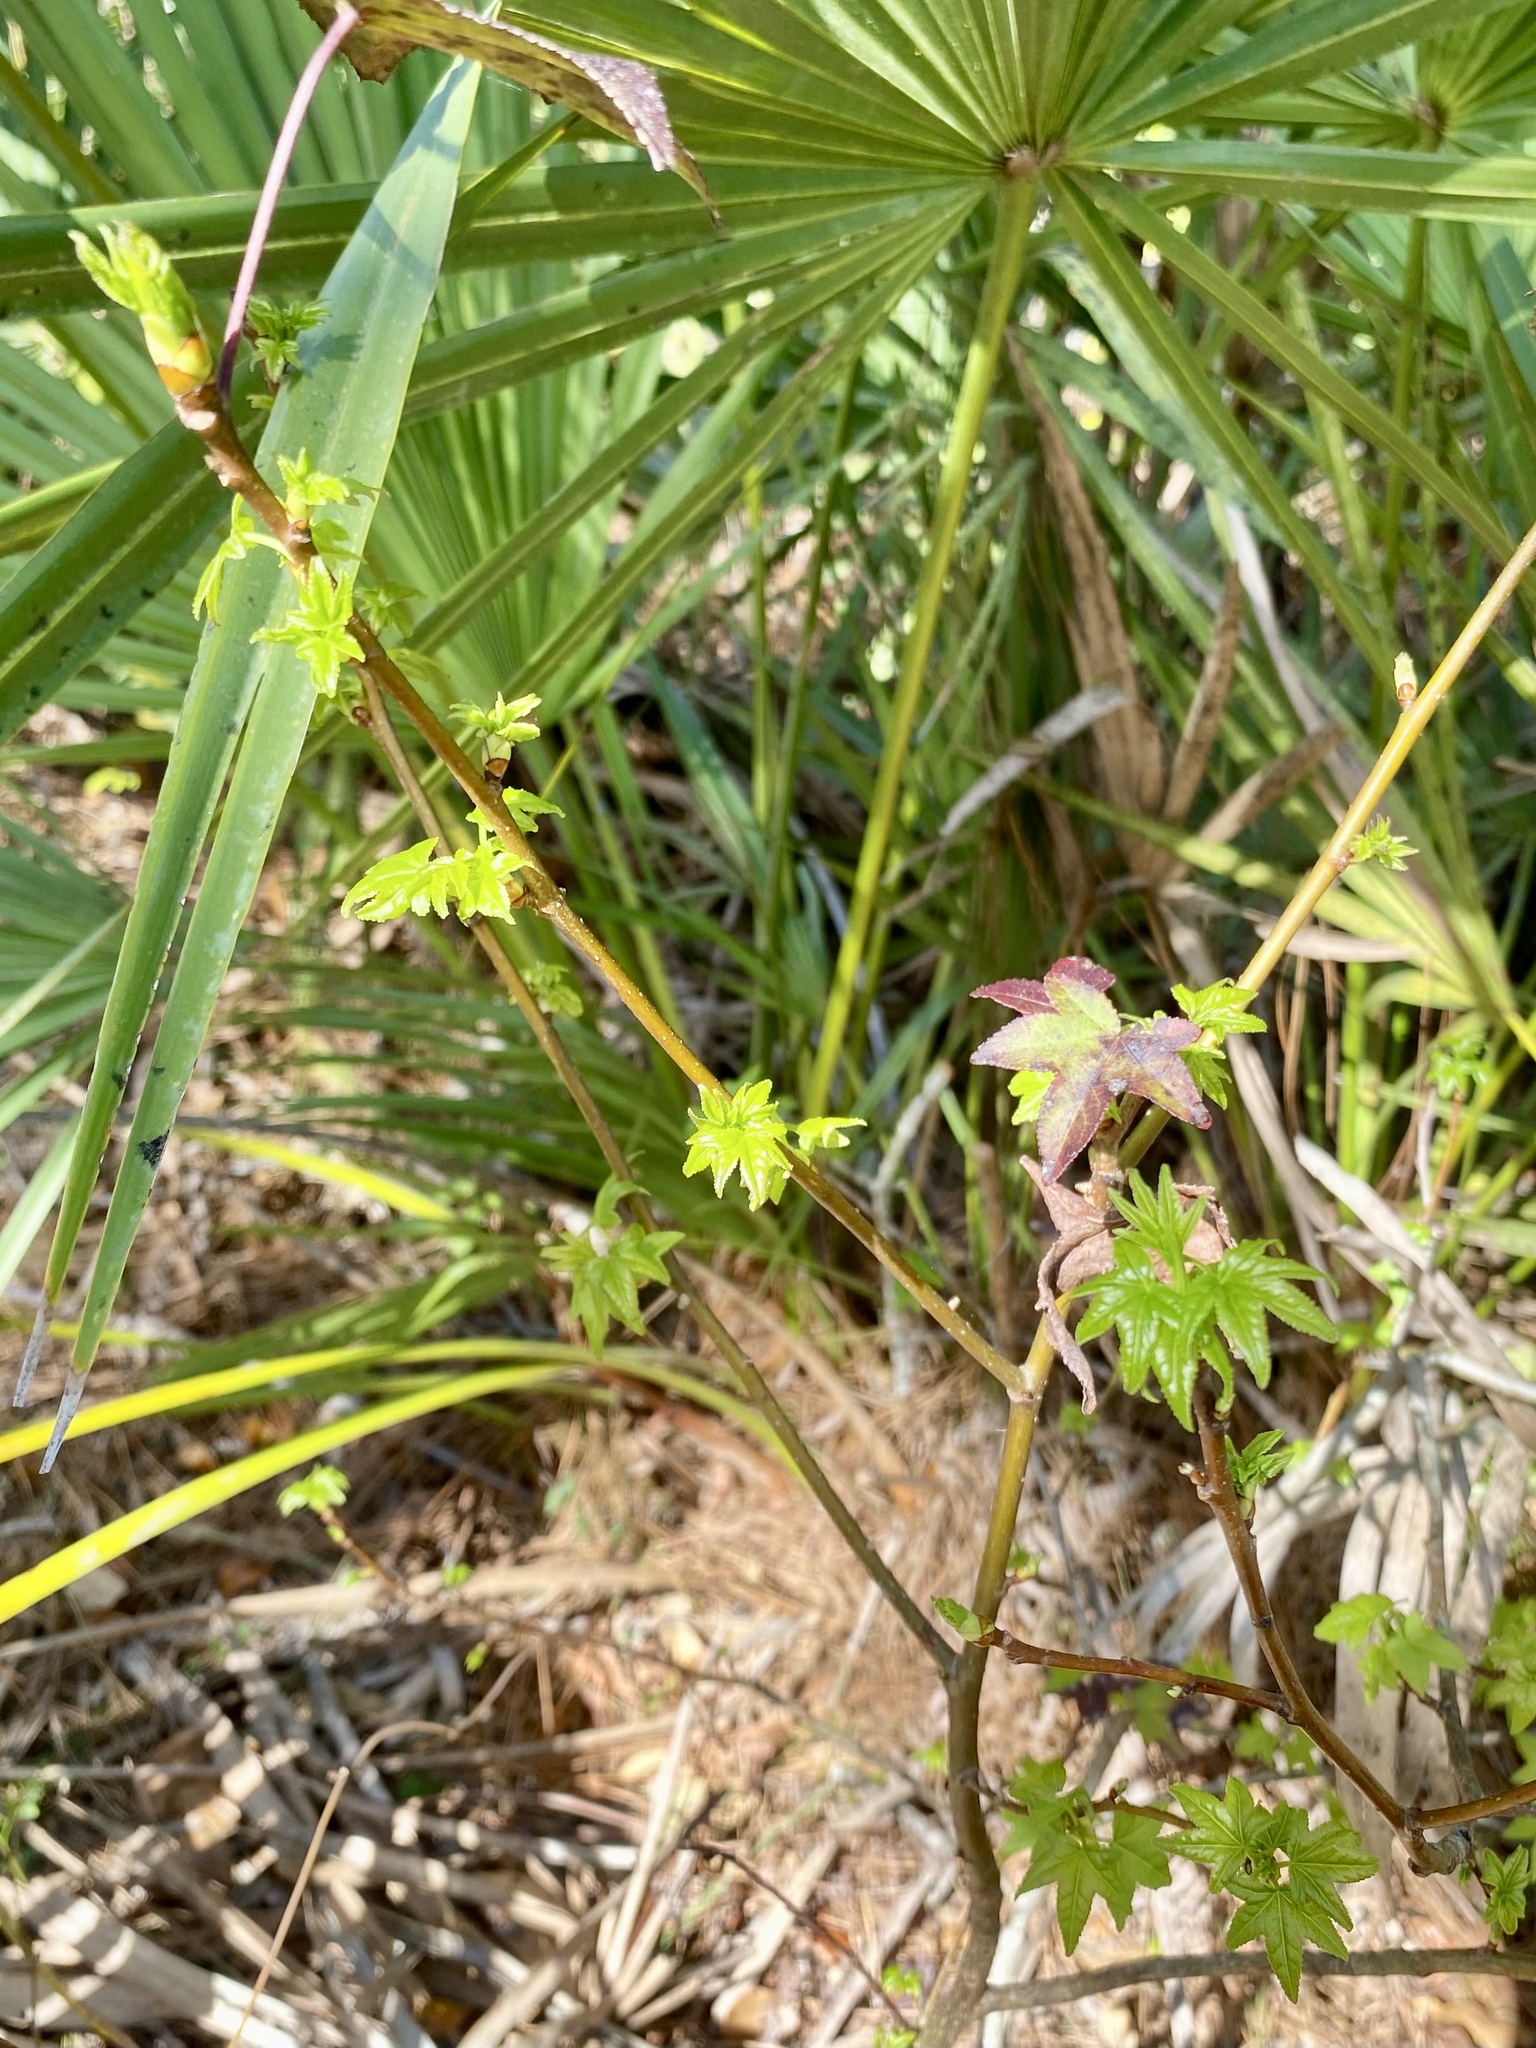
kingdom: Plantae
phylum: Tracheophyta
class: Magnoliopsida
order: Saxifragales
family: Altingiaceae
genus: Liquidambar
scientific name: Liquidambar styraciflua
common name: Sweet gum
